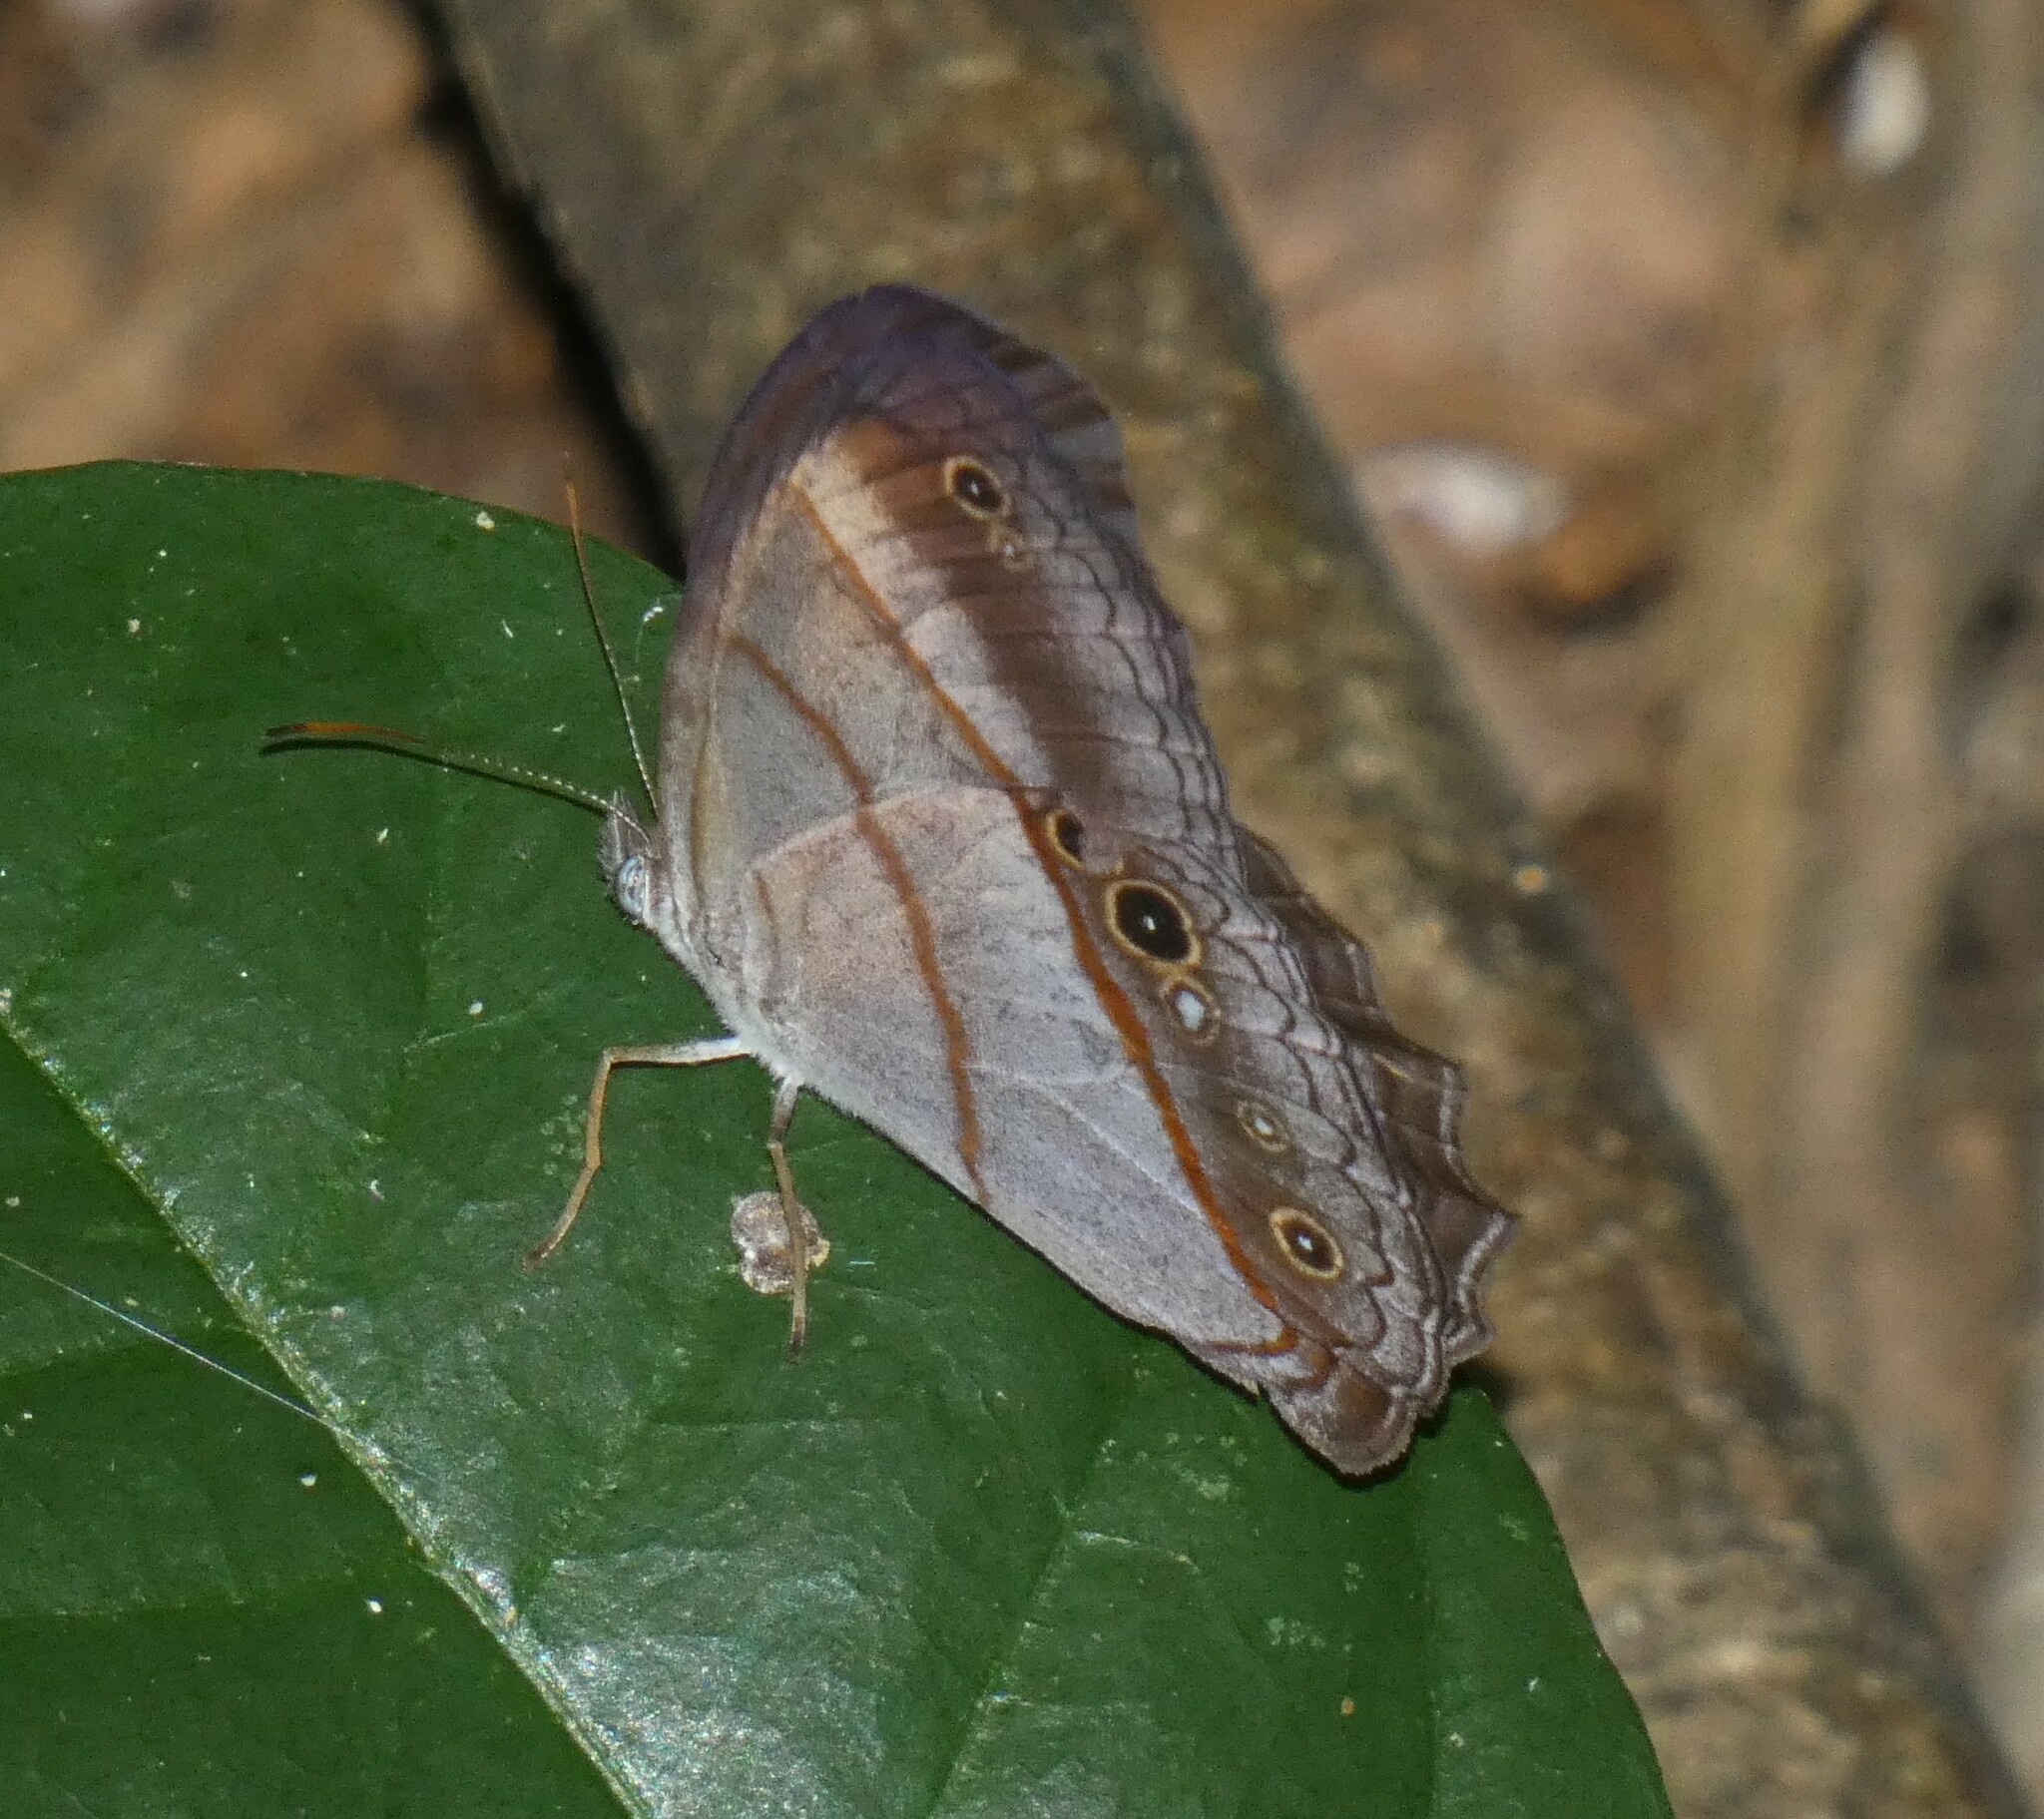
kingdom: Animalia
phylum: Arthropoda
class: Insecta
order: Lepidoptera
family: Nymphalidae
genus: Archeuptychia
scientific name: Archeuptychia cluena
